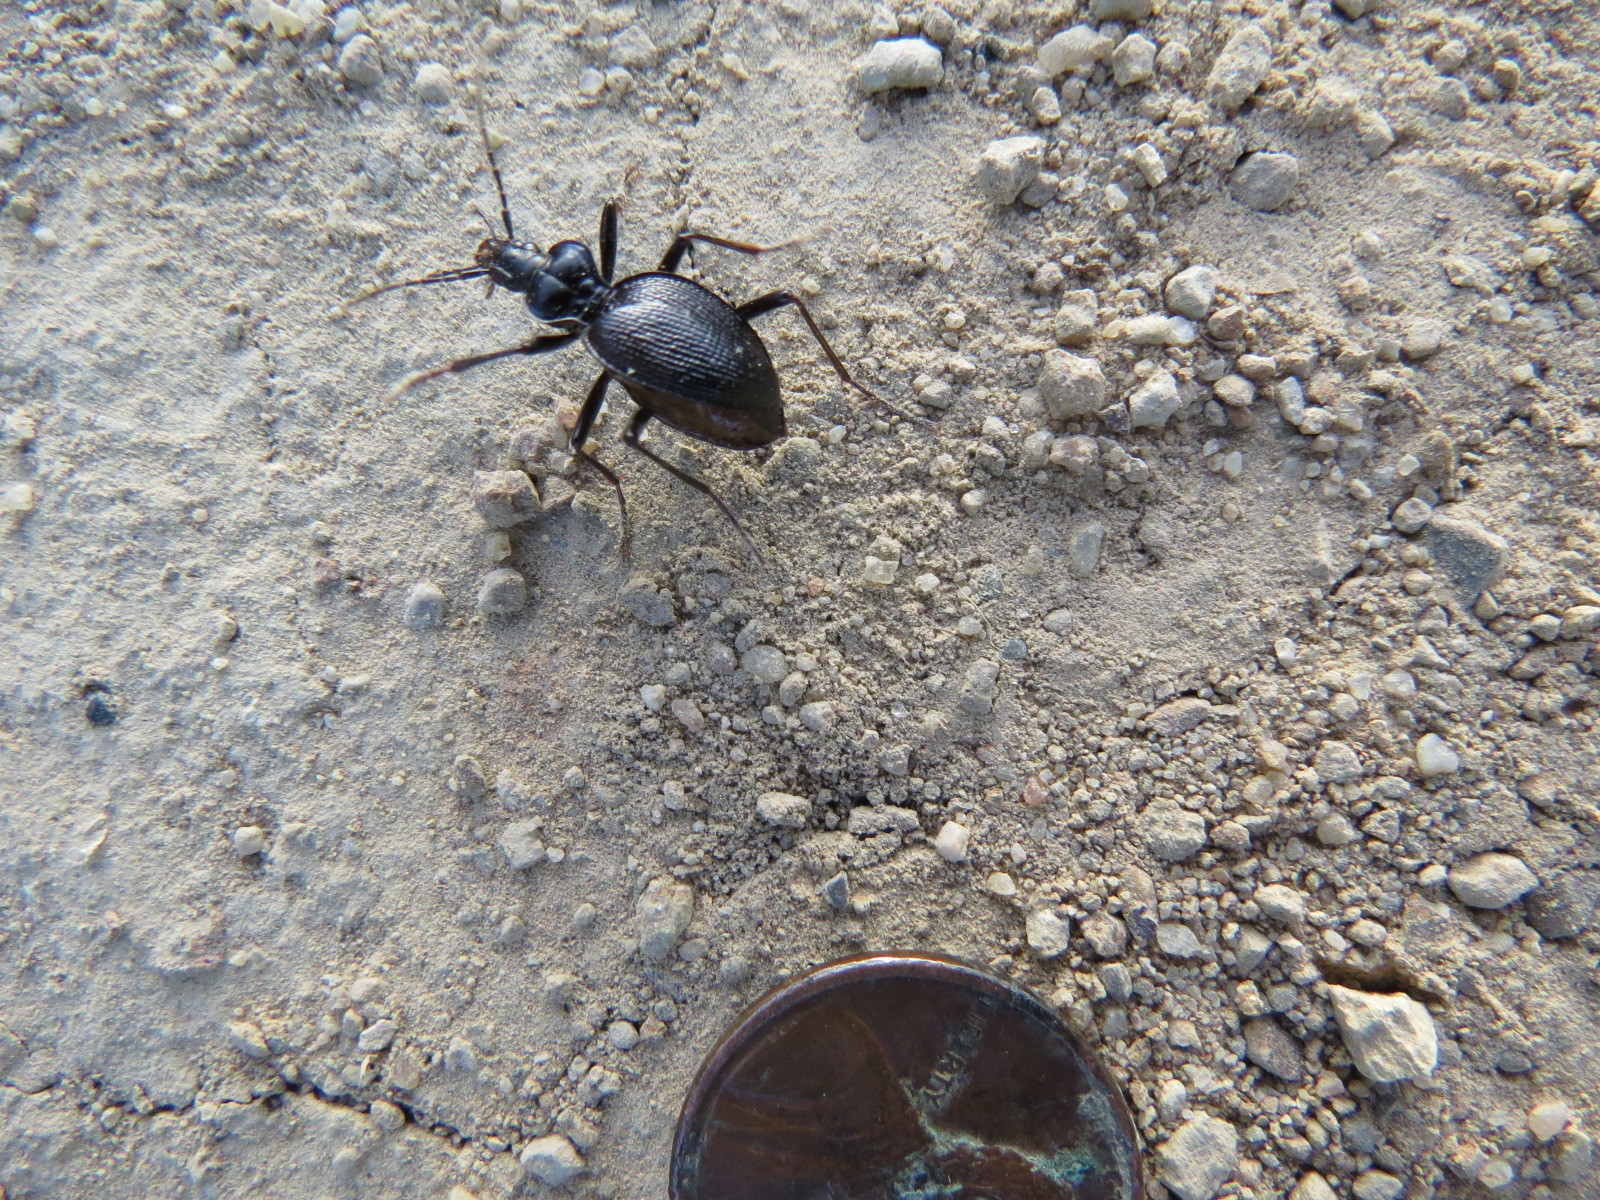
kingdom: Animalia
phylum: Arthropoda
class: Insecta
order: Coleoptera
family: Carabidae
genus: Scaphinotus
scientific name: Scaphinotus interruptus
